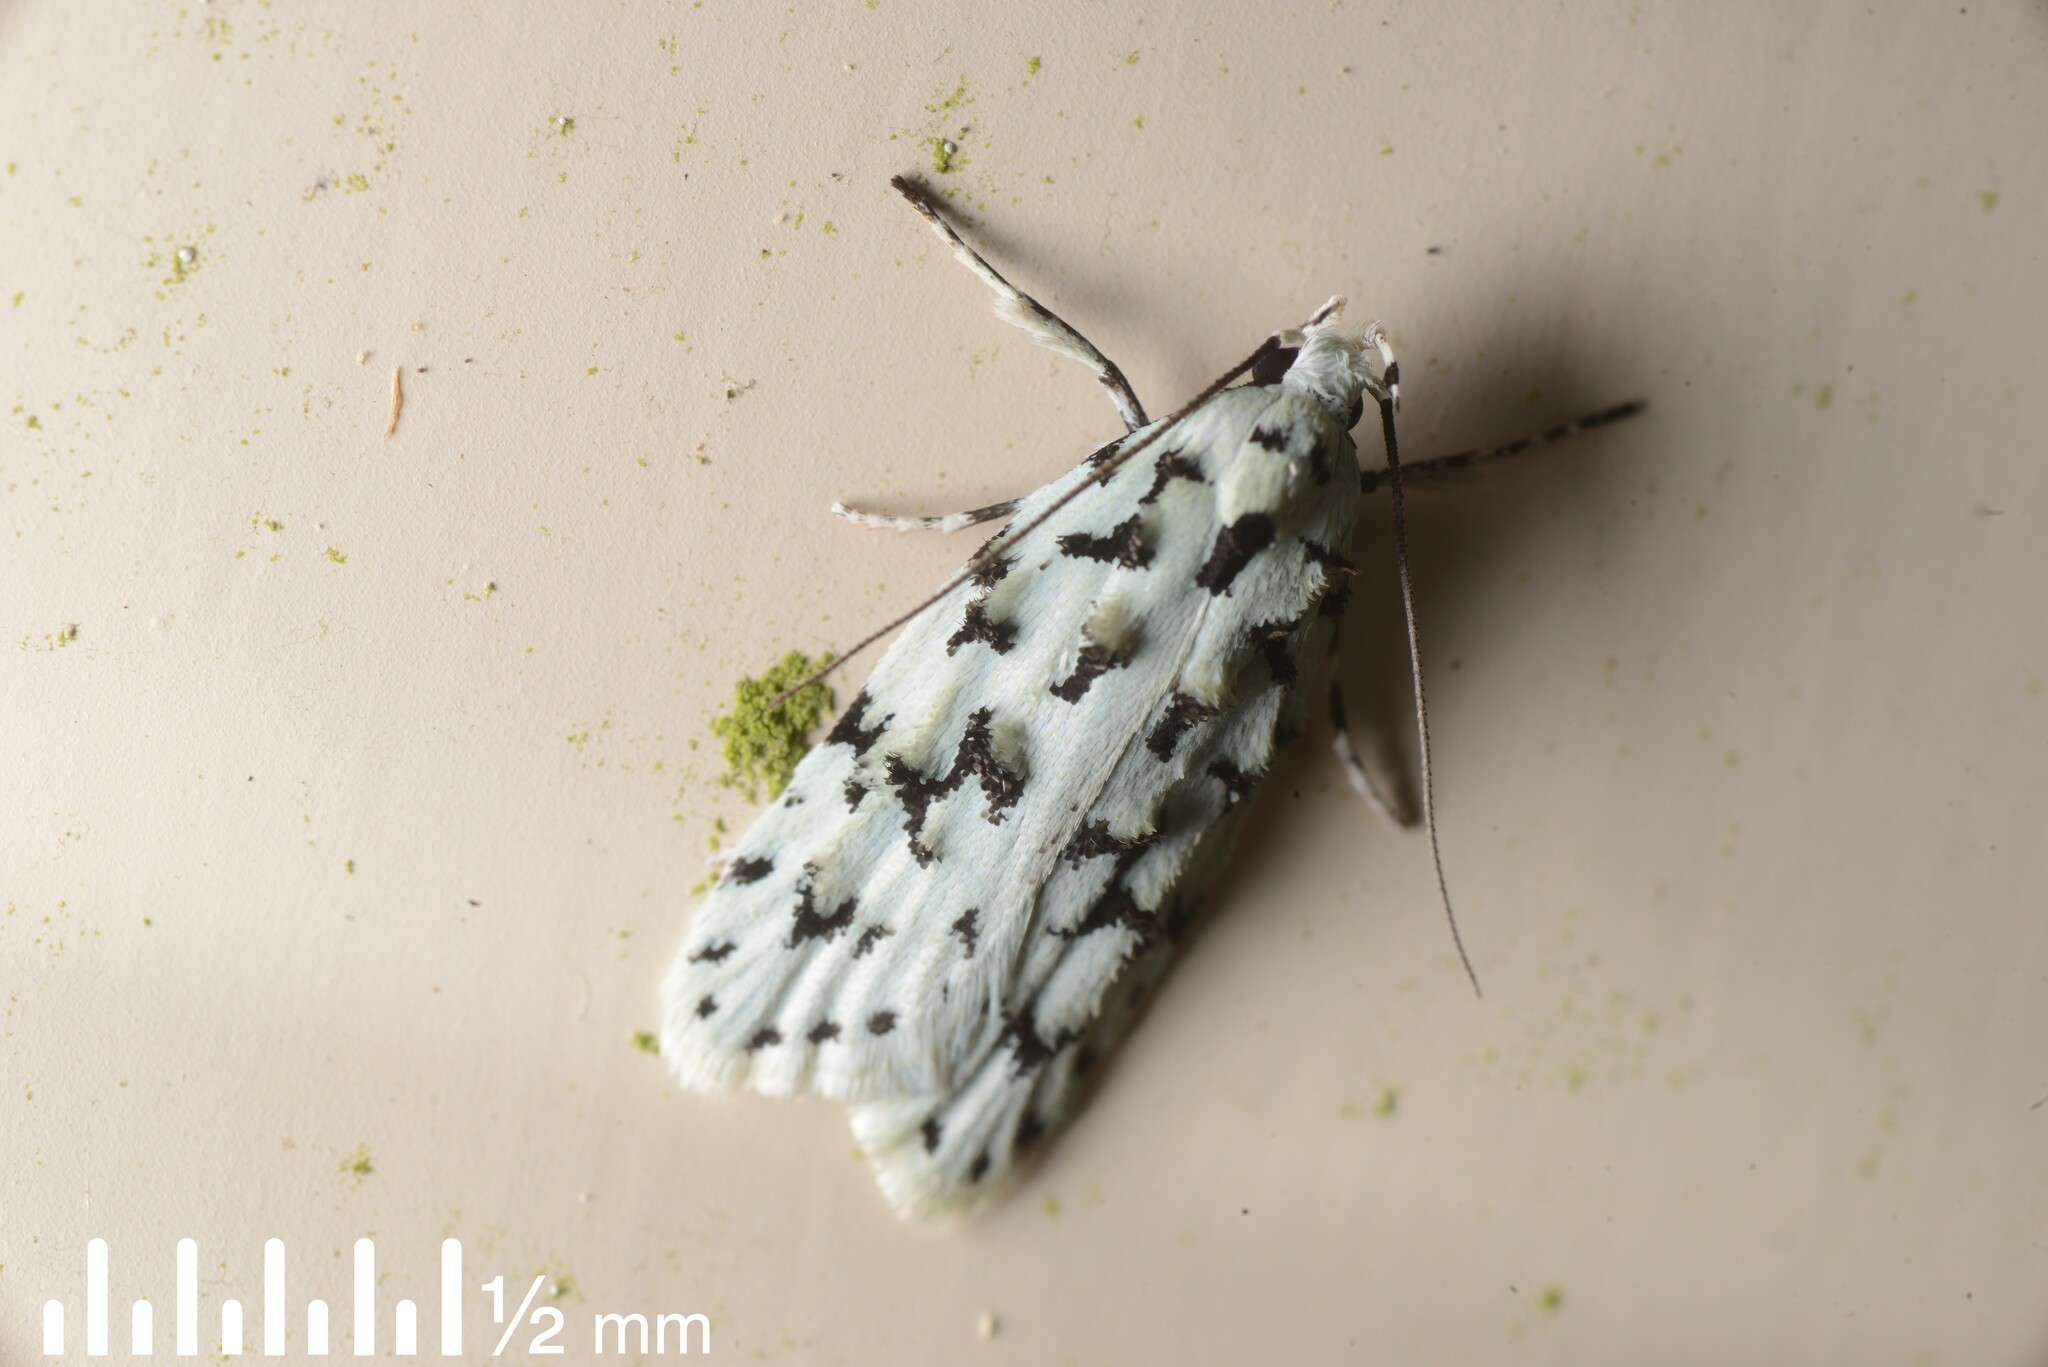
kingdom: Animalia
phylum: Arthropoda
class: Insecta
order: Lepidoptera
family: Oecophoridae
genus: Izatha
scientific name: Izatha huttoni
